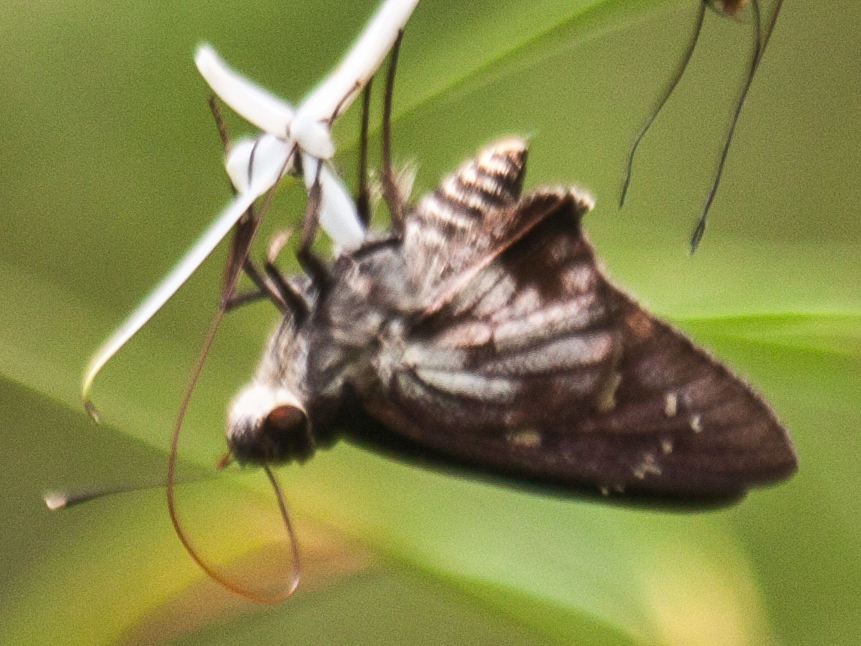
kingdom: Animalia
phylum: Arthropoda
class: Insecta
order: Lepidoptera
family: Hesperiidae
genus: Unkana
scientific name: Unkana ambasa
